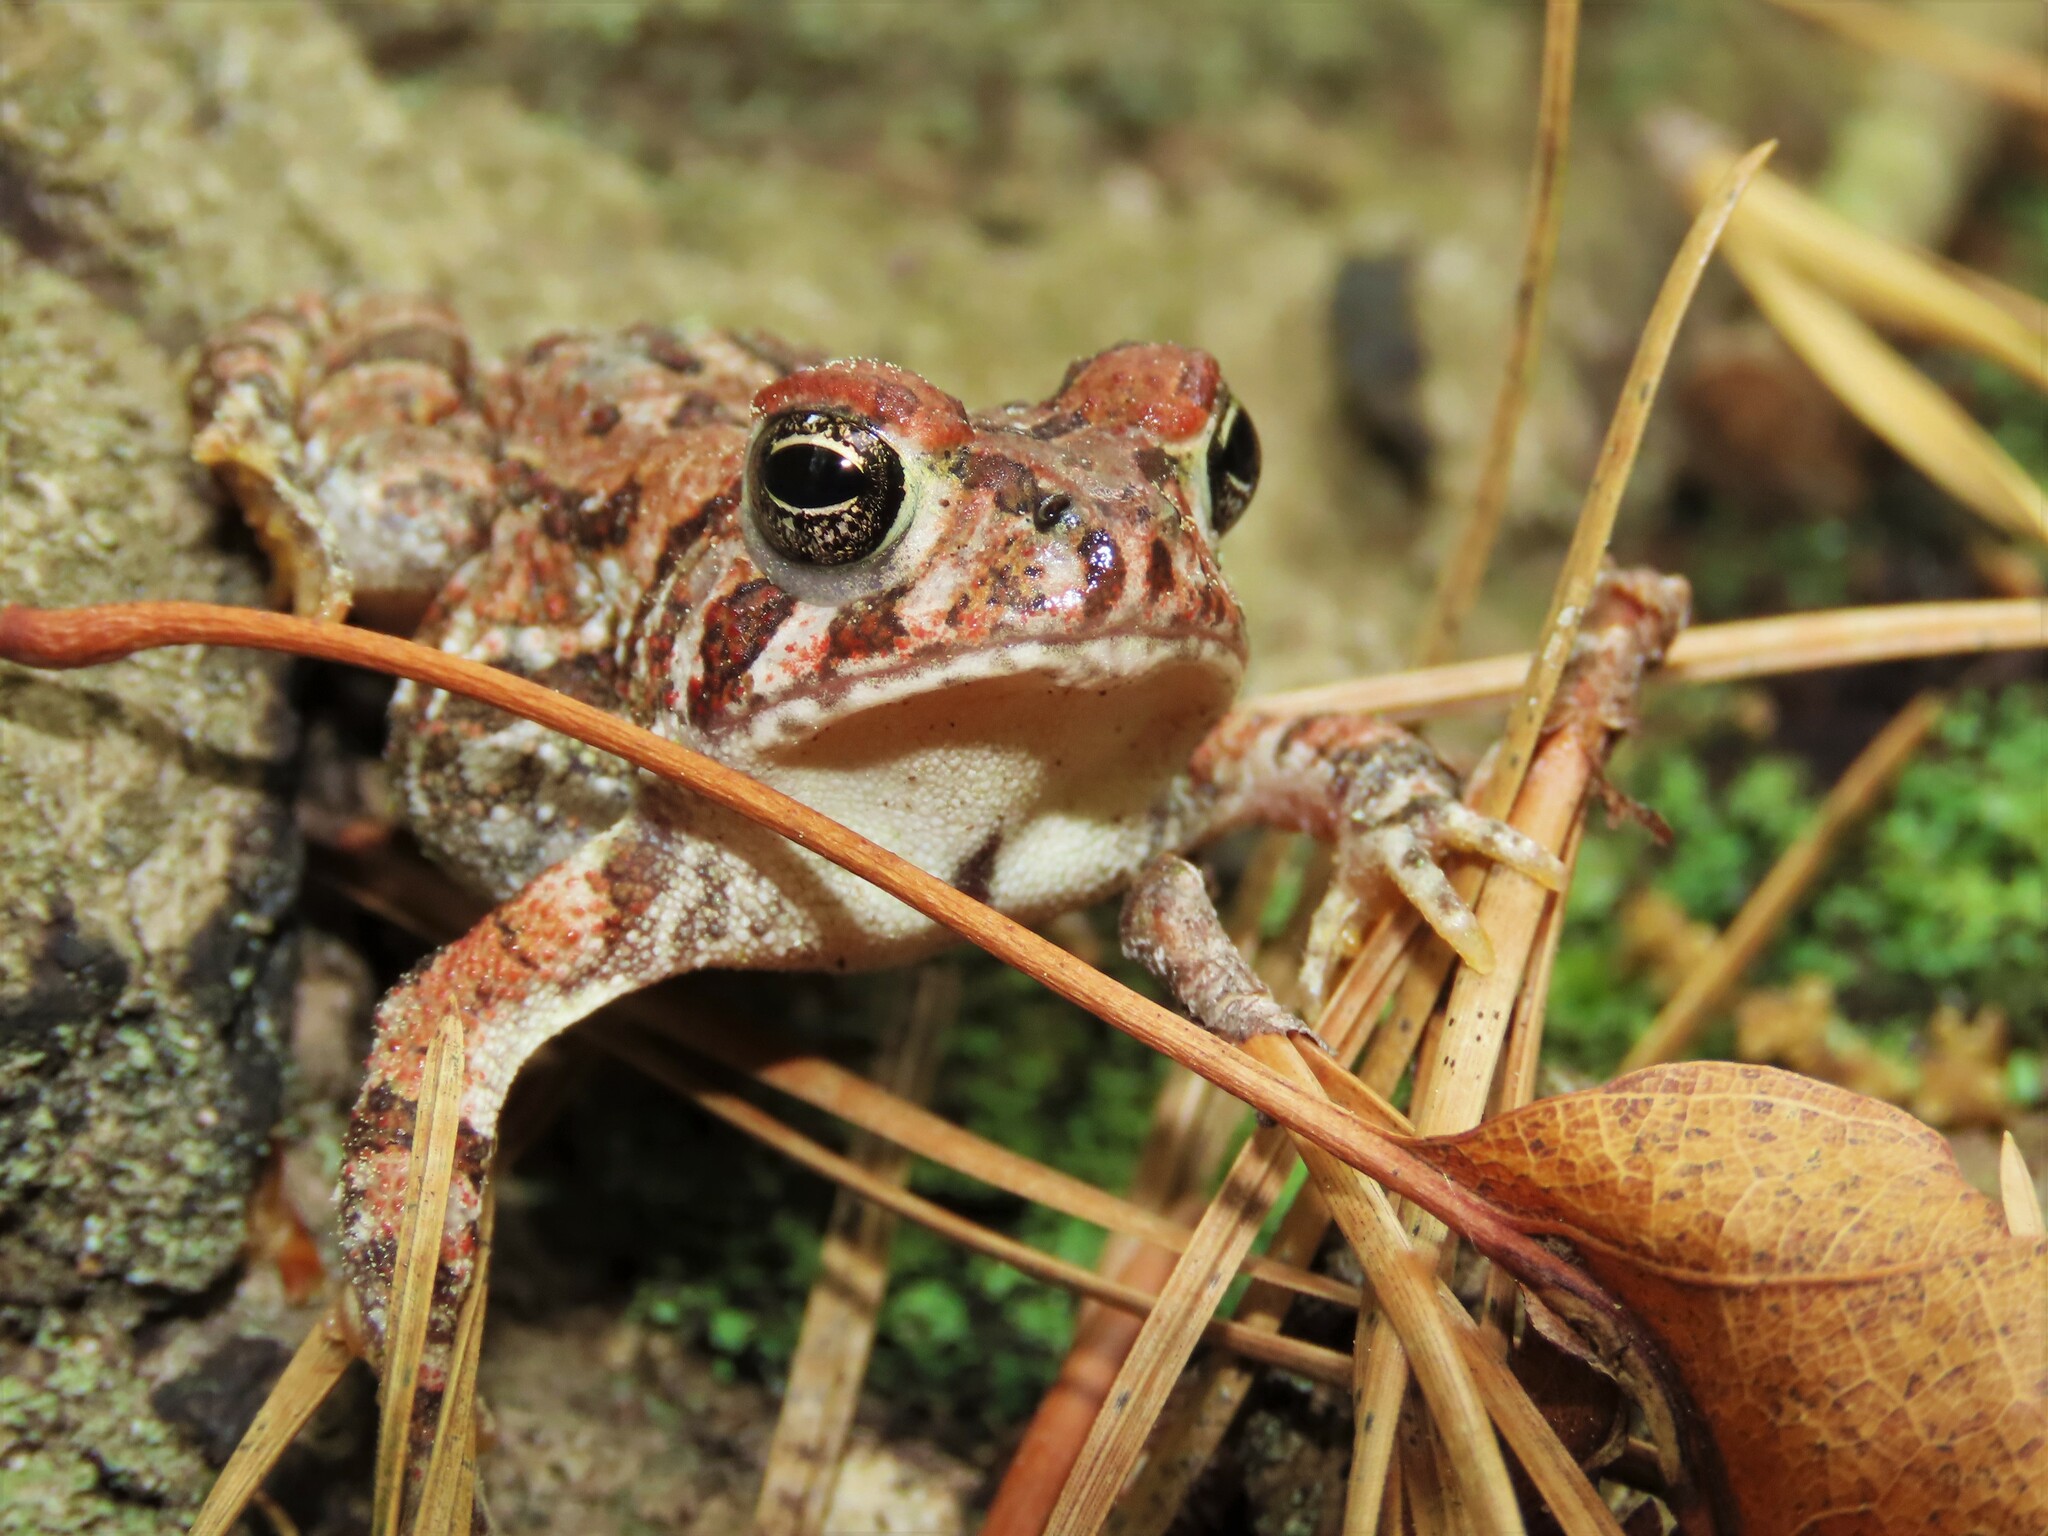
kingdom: Animalia
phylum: Chordata
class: Amphibia
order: Anura
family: Bufonidae
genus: Anaxyrus
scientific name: Anaxyrus fowleri
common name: Fowler's toad
